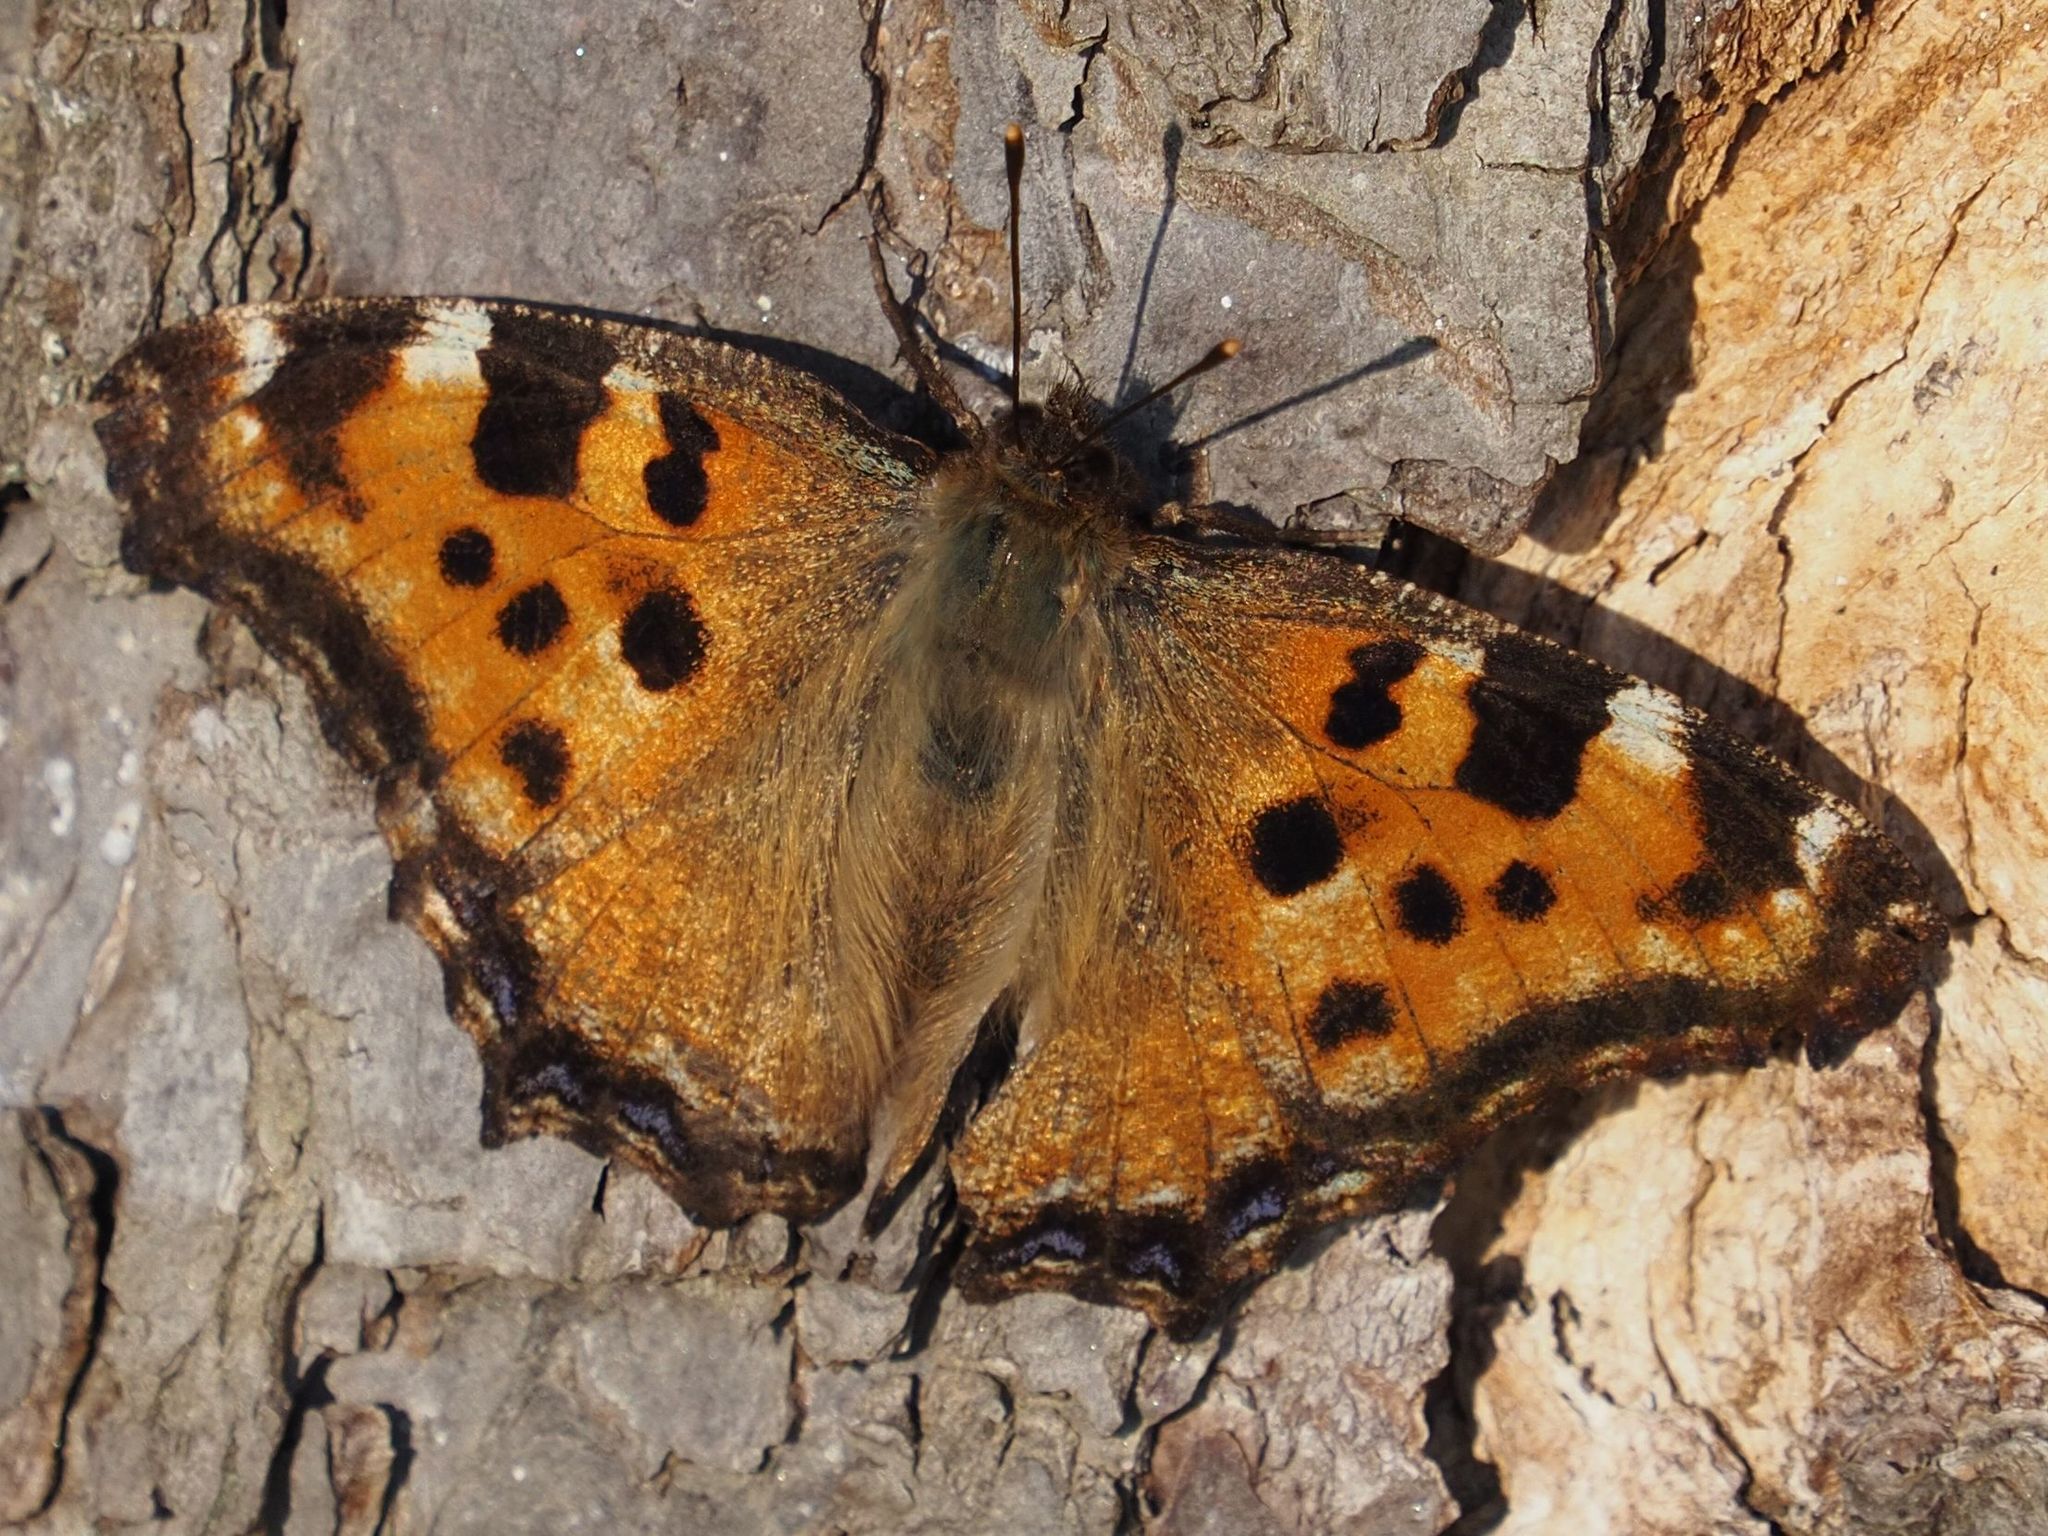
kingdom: Animalia
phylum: Arthropoda
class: Insecta
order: Lepidoptera
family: Nymphalidae
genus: Nymphalis
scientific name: Nymphalis polychloros
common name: Large tortoiseshell
